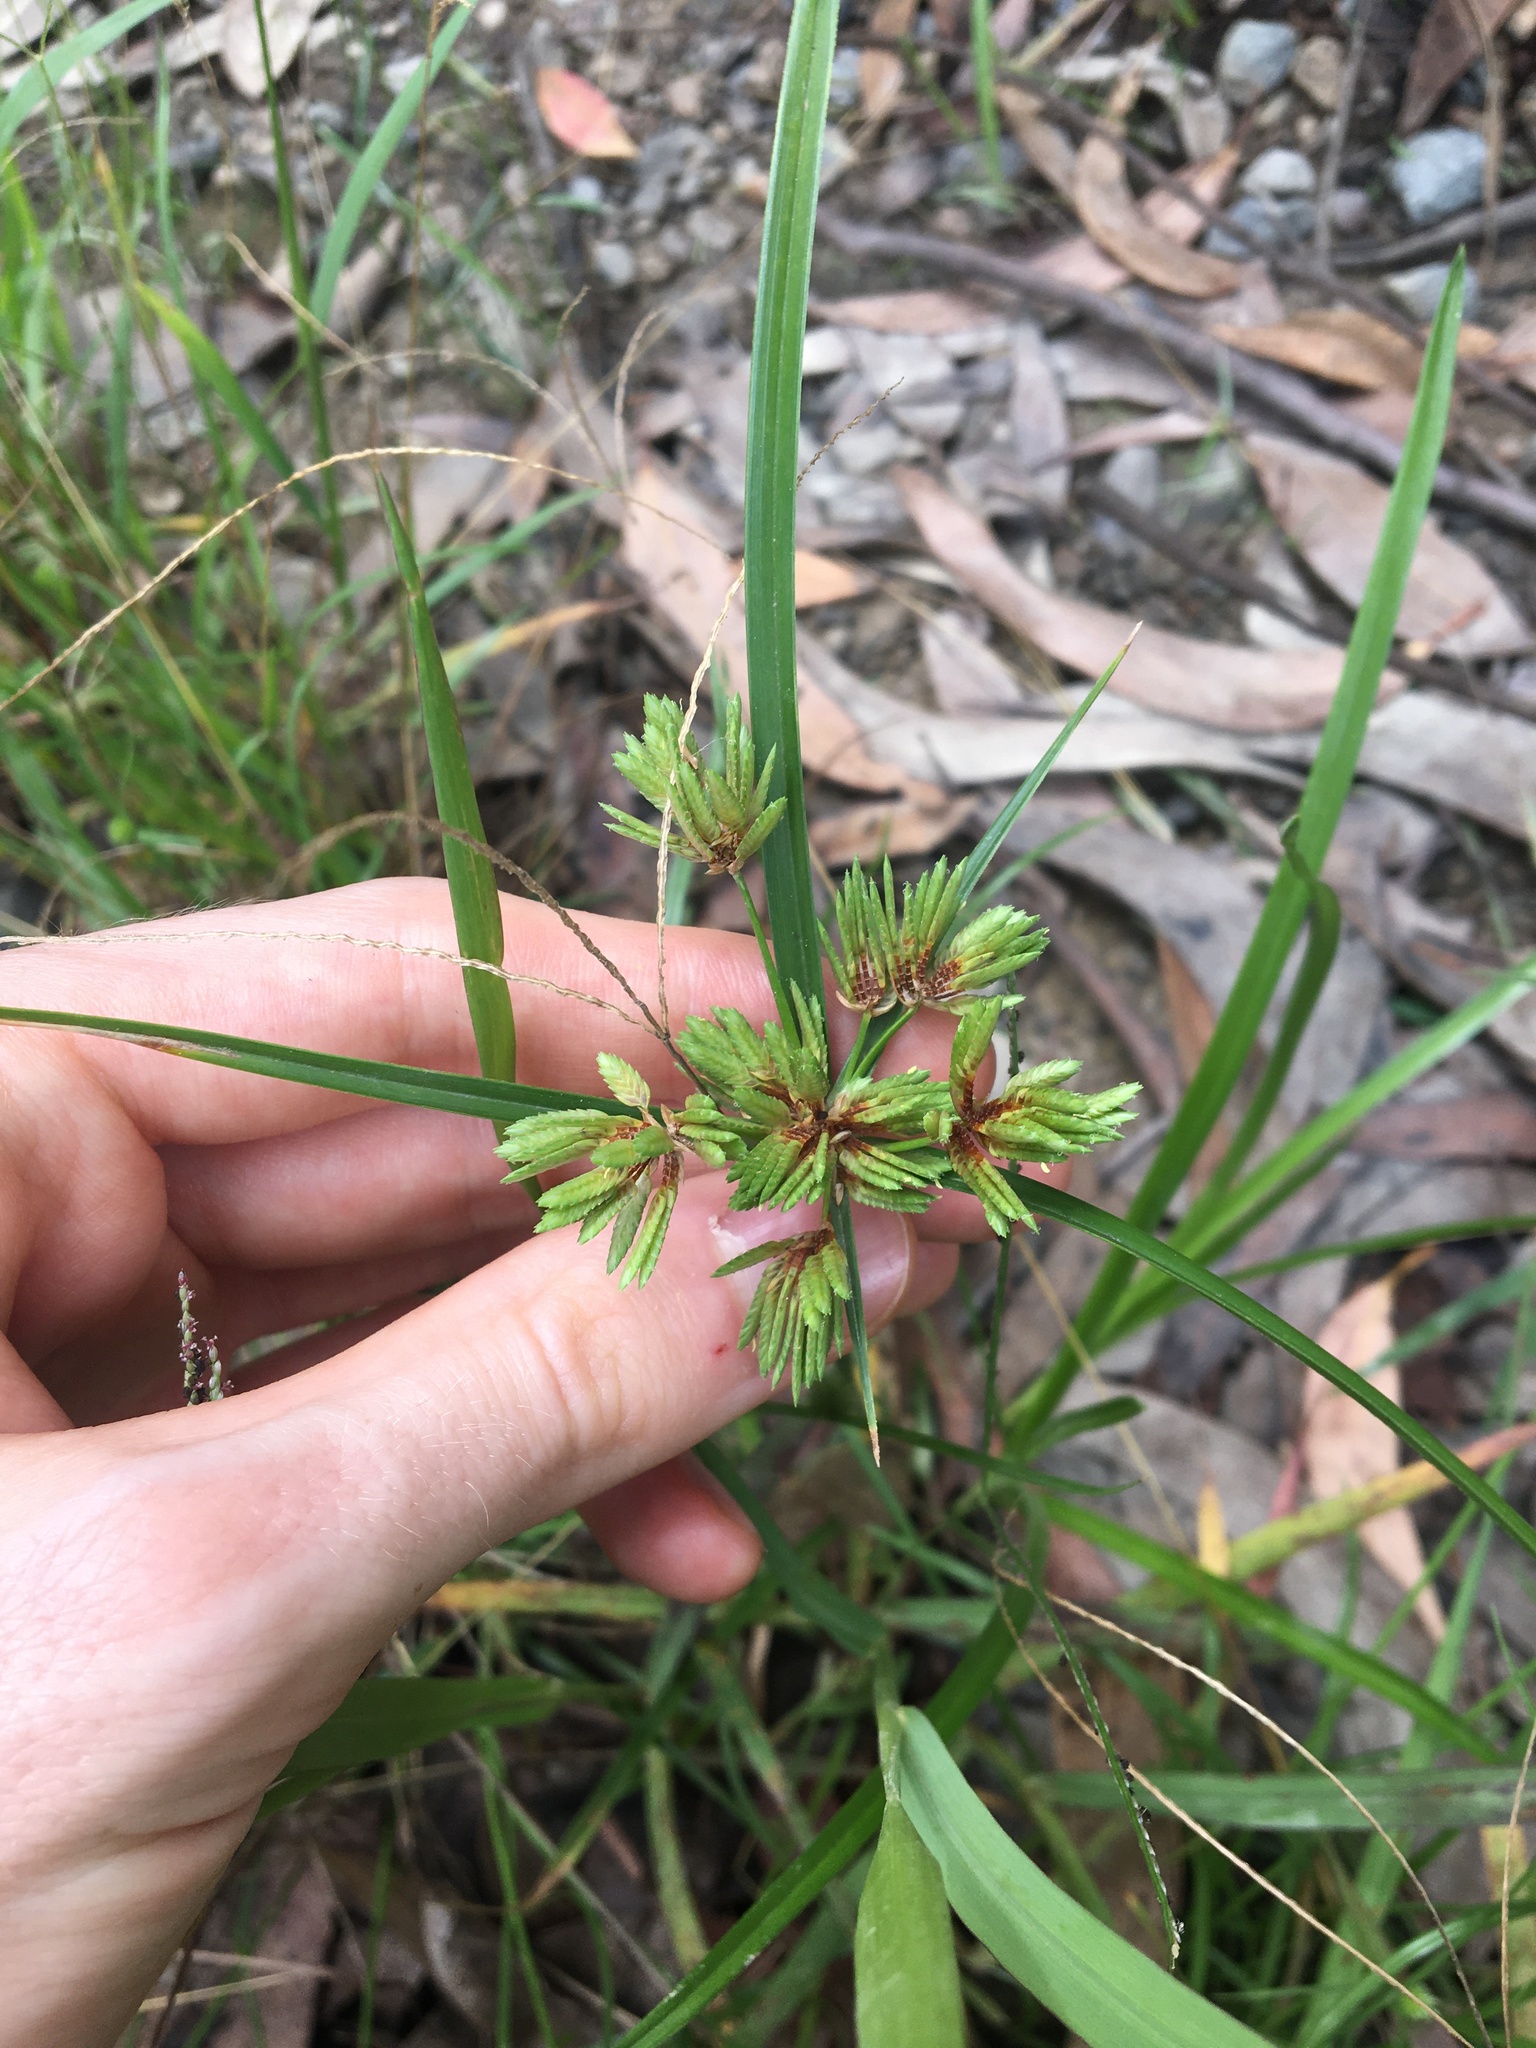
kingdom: Plantae
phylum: Tracheophyta
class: Liliopsida
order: Poales
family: Cyperaceae
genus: Cyperus
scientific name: Cyperus eragrostis
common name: Tall flatsedge
